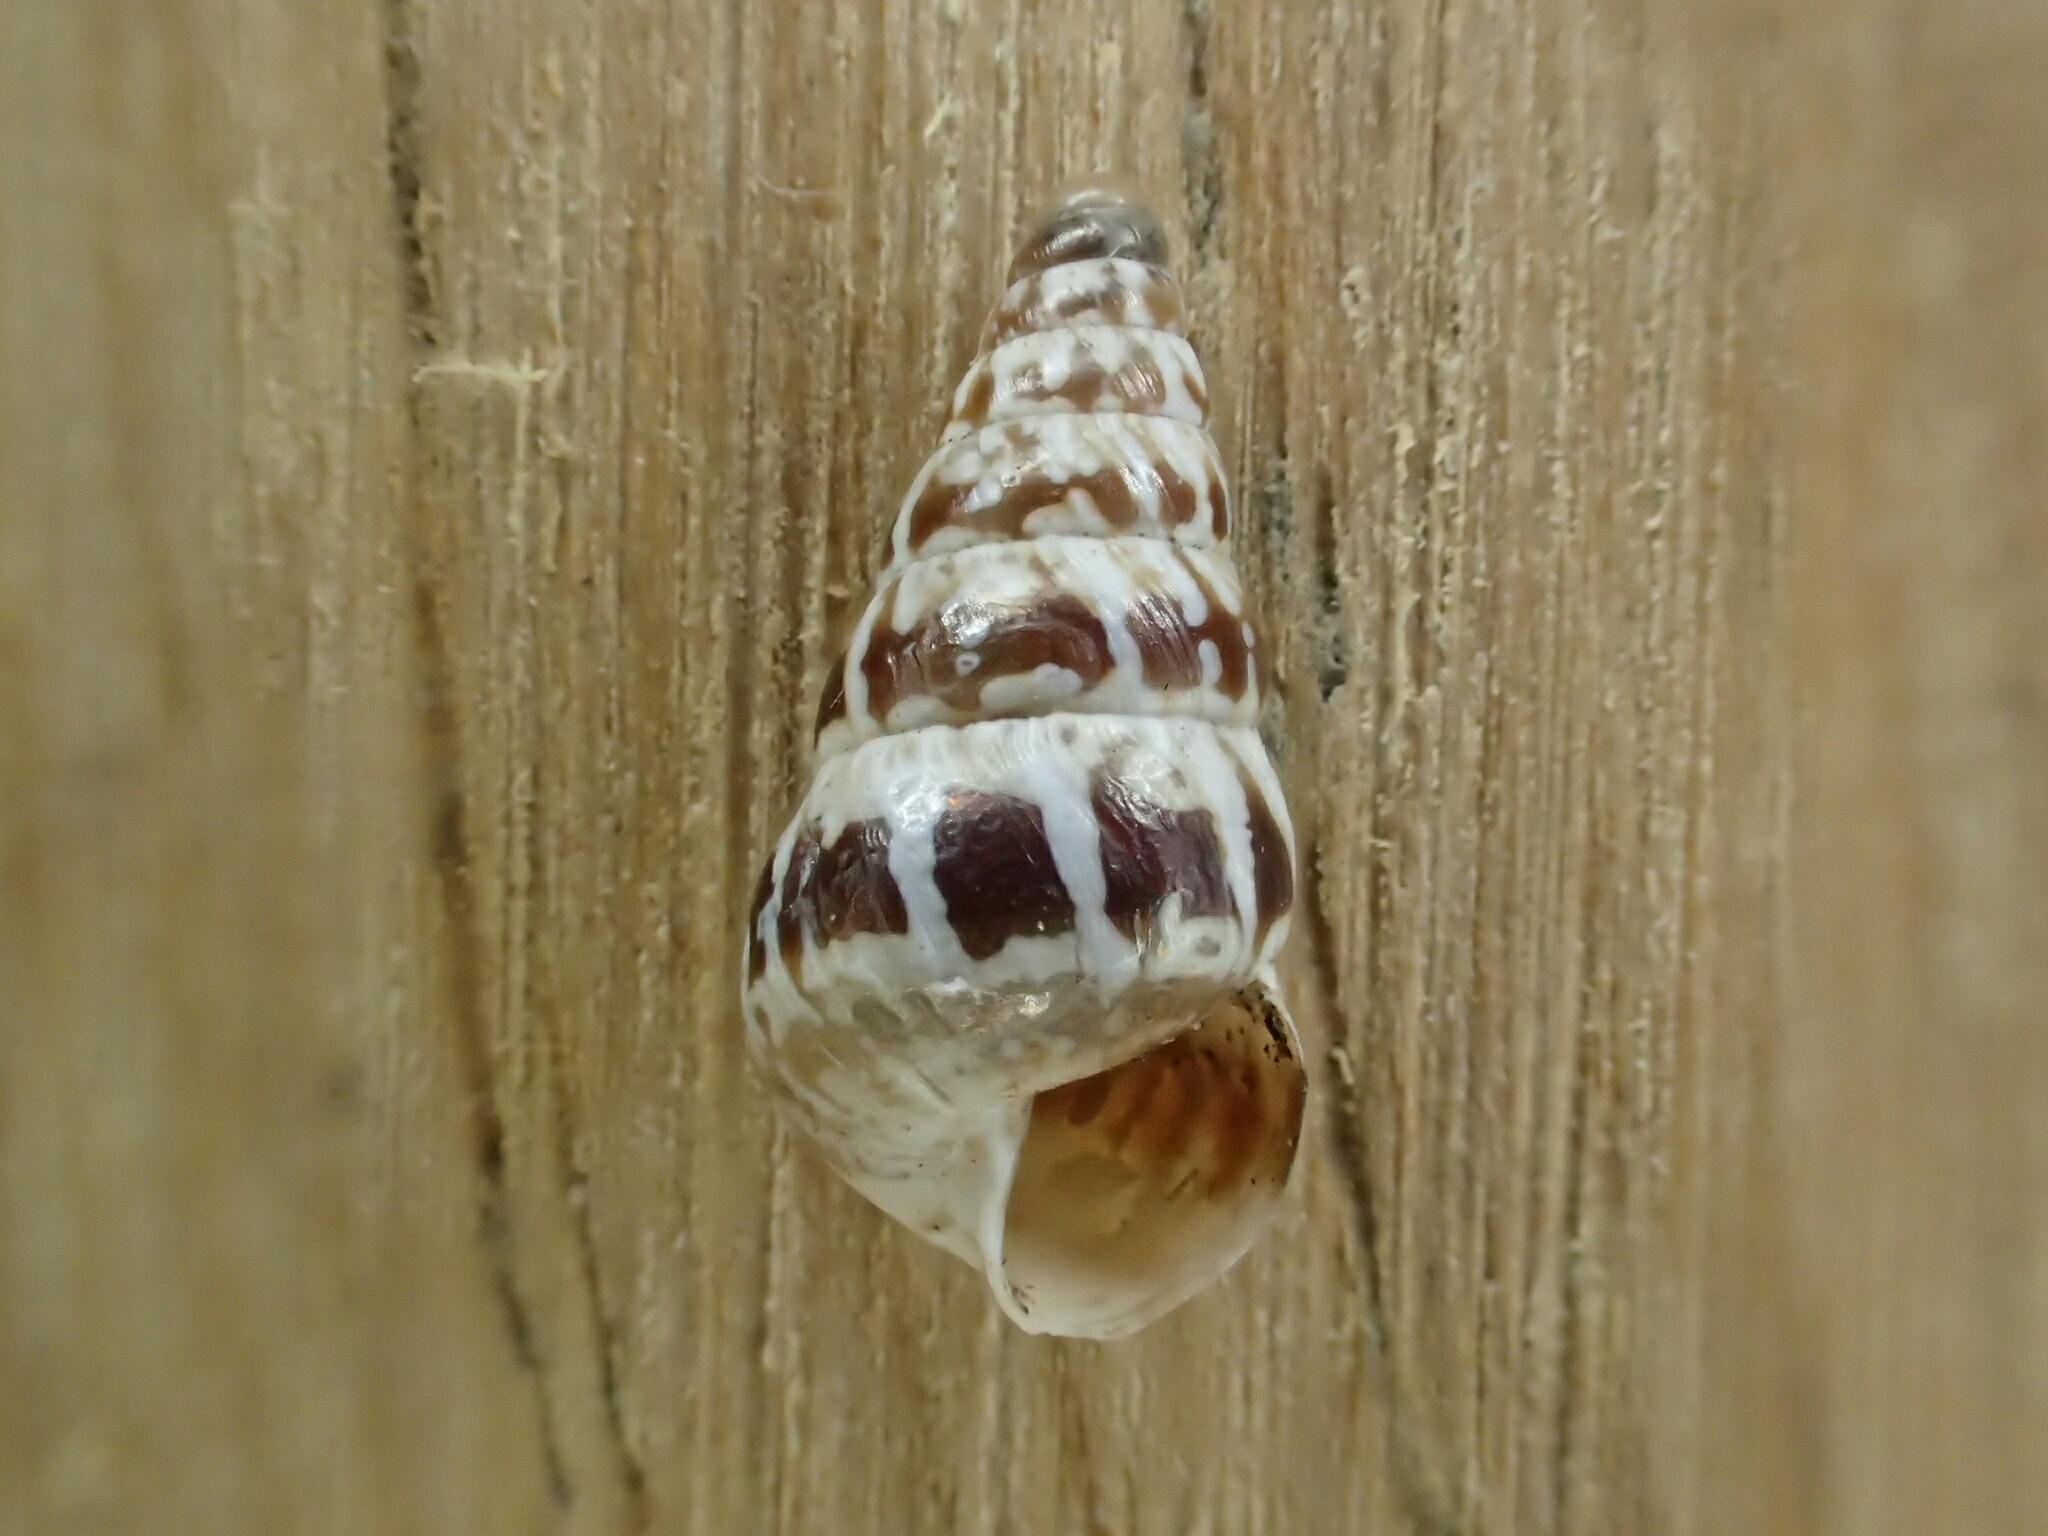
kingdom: Animalia
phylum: Mollusca
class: Gastropoda
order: Stylommatophora
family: Geomitridae
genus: Cochlicella
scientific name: Cochlicella barbara
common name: Potbellied helicellid
